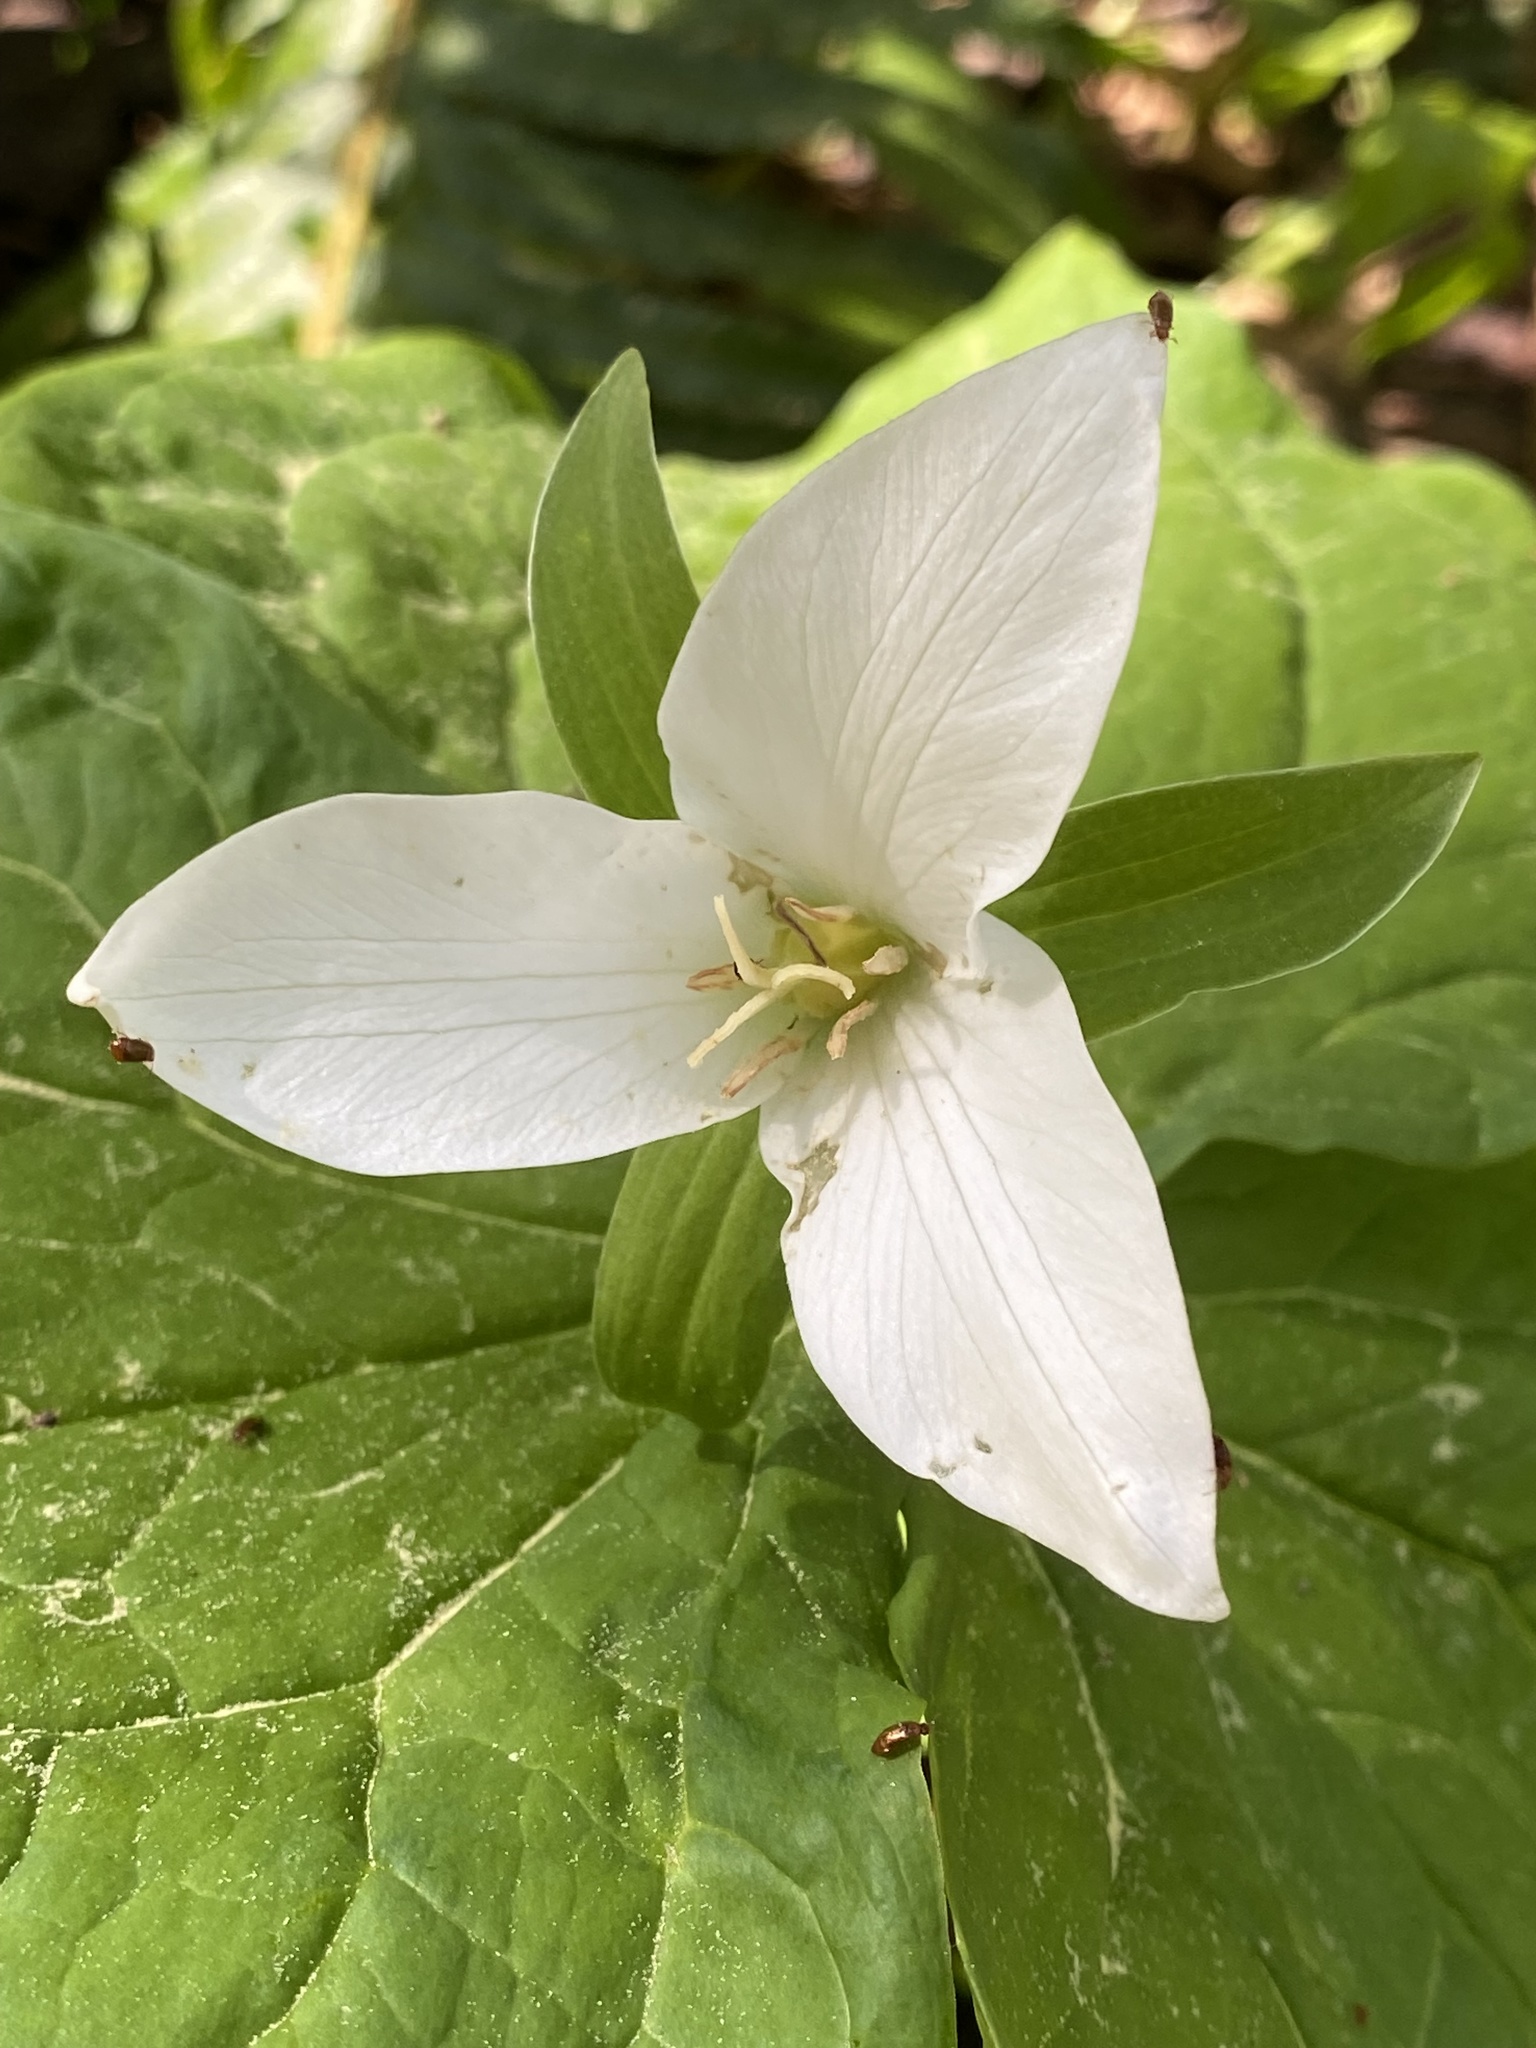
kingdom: Plantae
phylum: Tracheophyta
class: Liliopsida
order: Liliales
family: Melanthiaceae
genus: Trillium
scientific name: Trillium ovatum
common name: Pacific trillium
